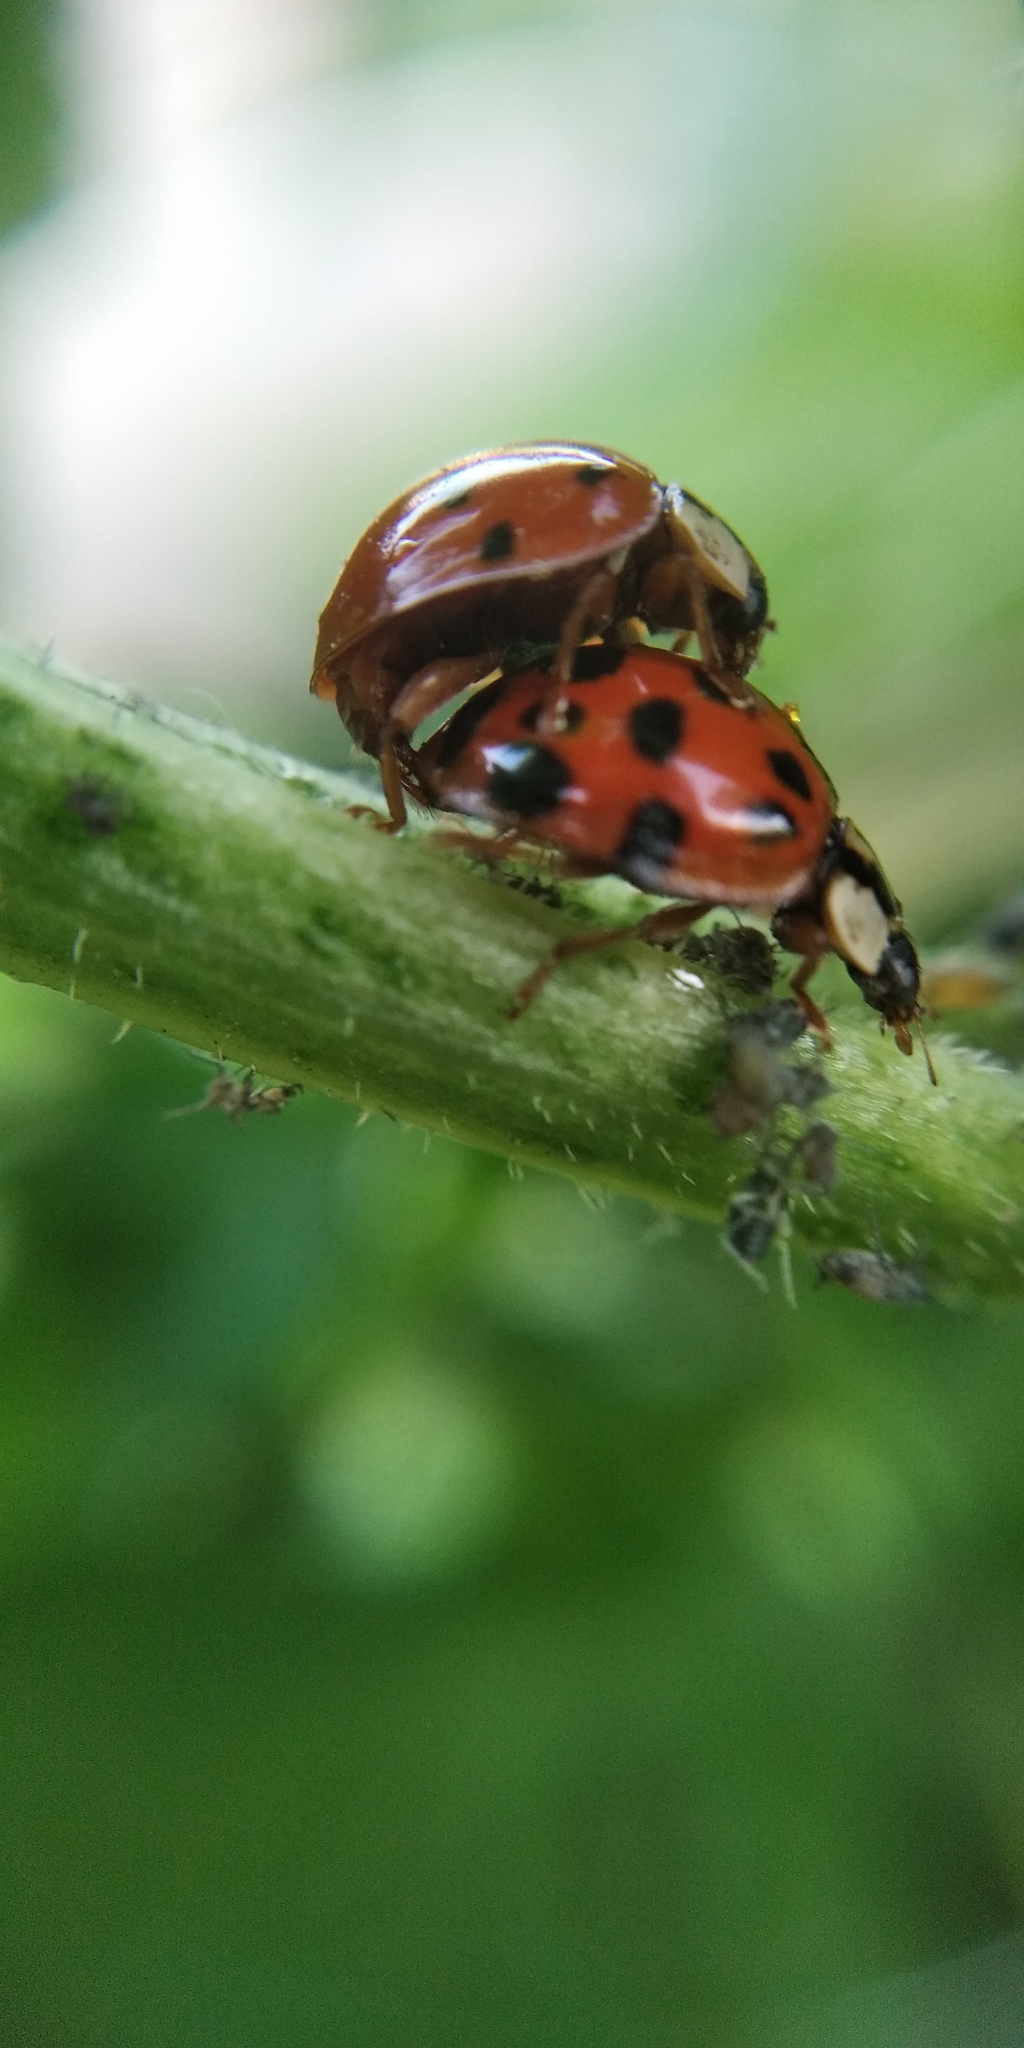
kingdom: Animalia
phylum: Arthropoda
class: Insecta
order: Coleoptera
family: Coccinellidae
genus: Harmonia
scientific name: Harmonia axyridis
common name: Harlequin ladybird
